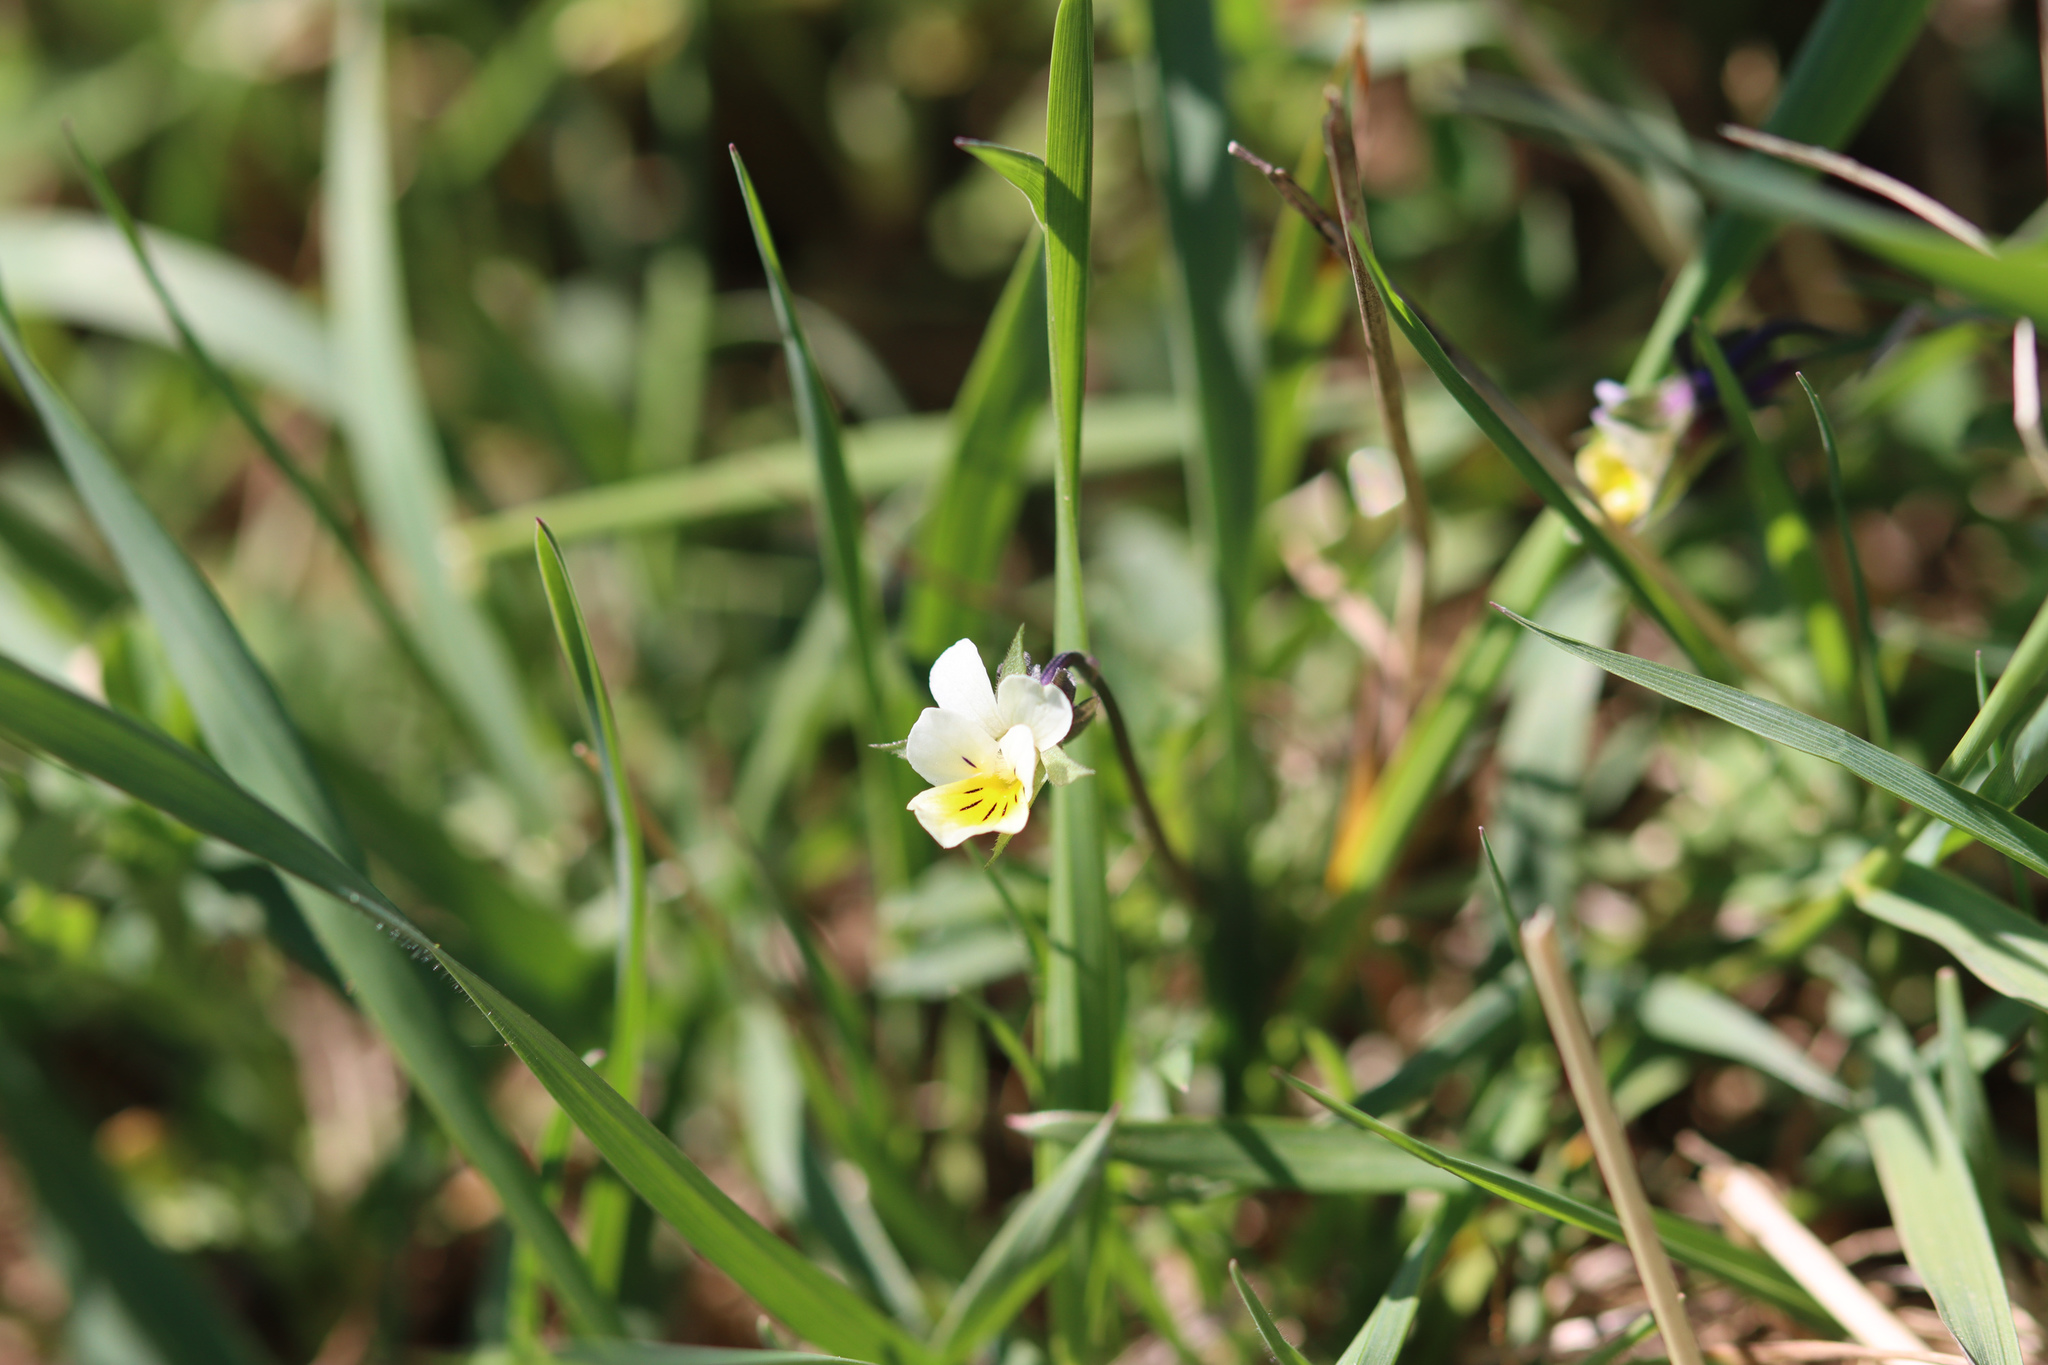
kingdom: Plantae
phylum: Tracheophyta
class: Magnoliopsida
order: Malpighiales
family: Violaceae
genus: Viola
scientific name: Viola arvensis
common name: Field pansy
